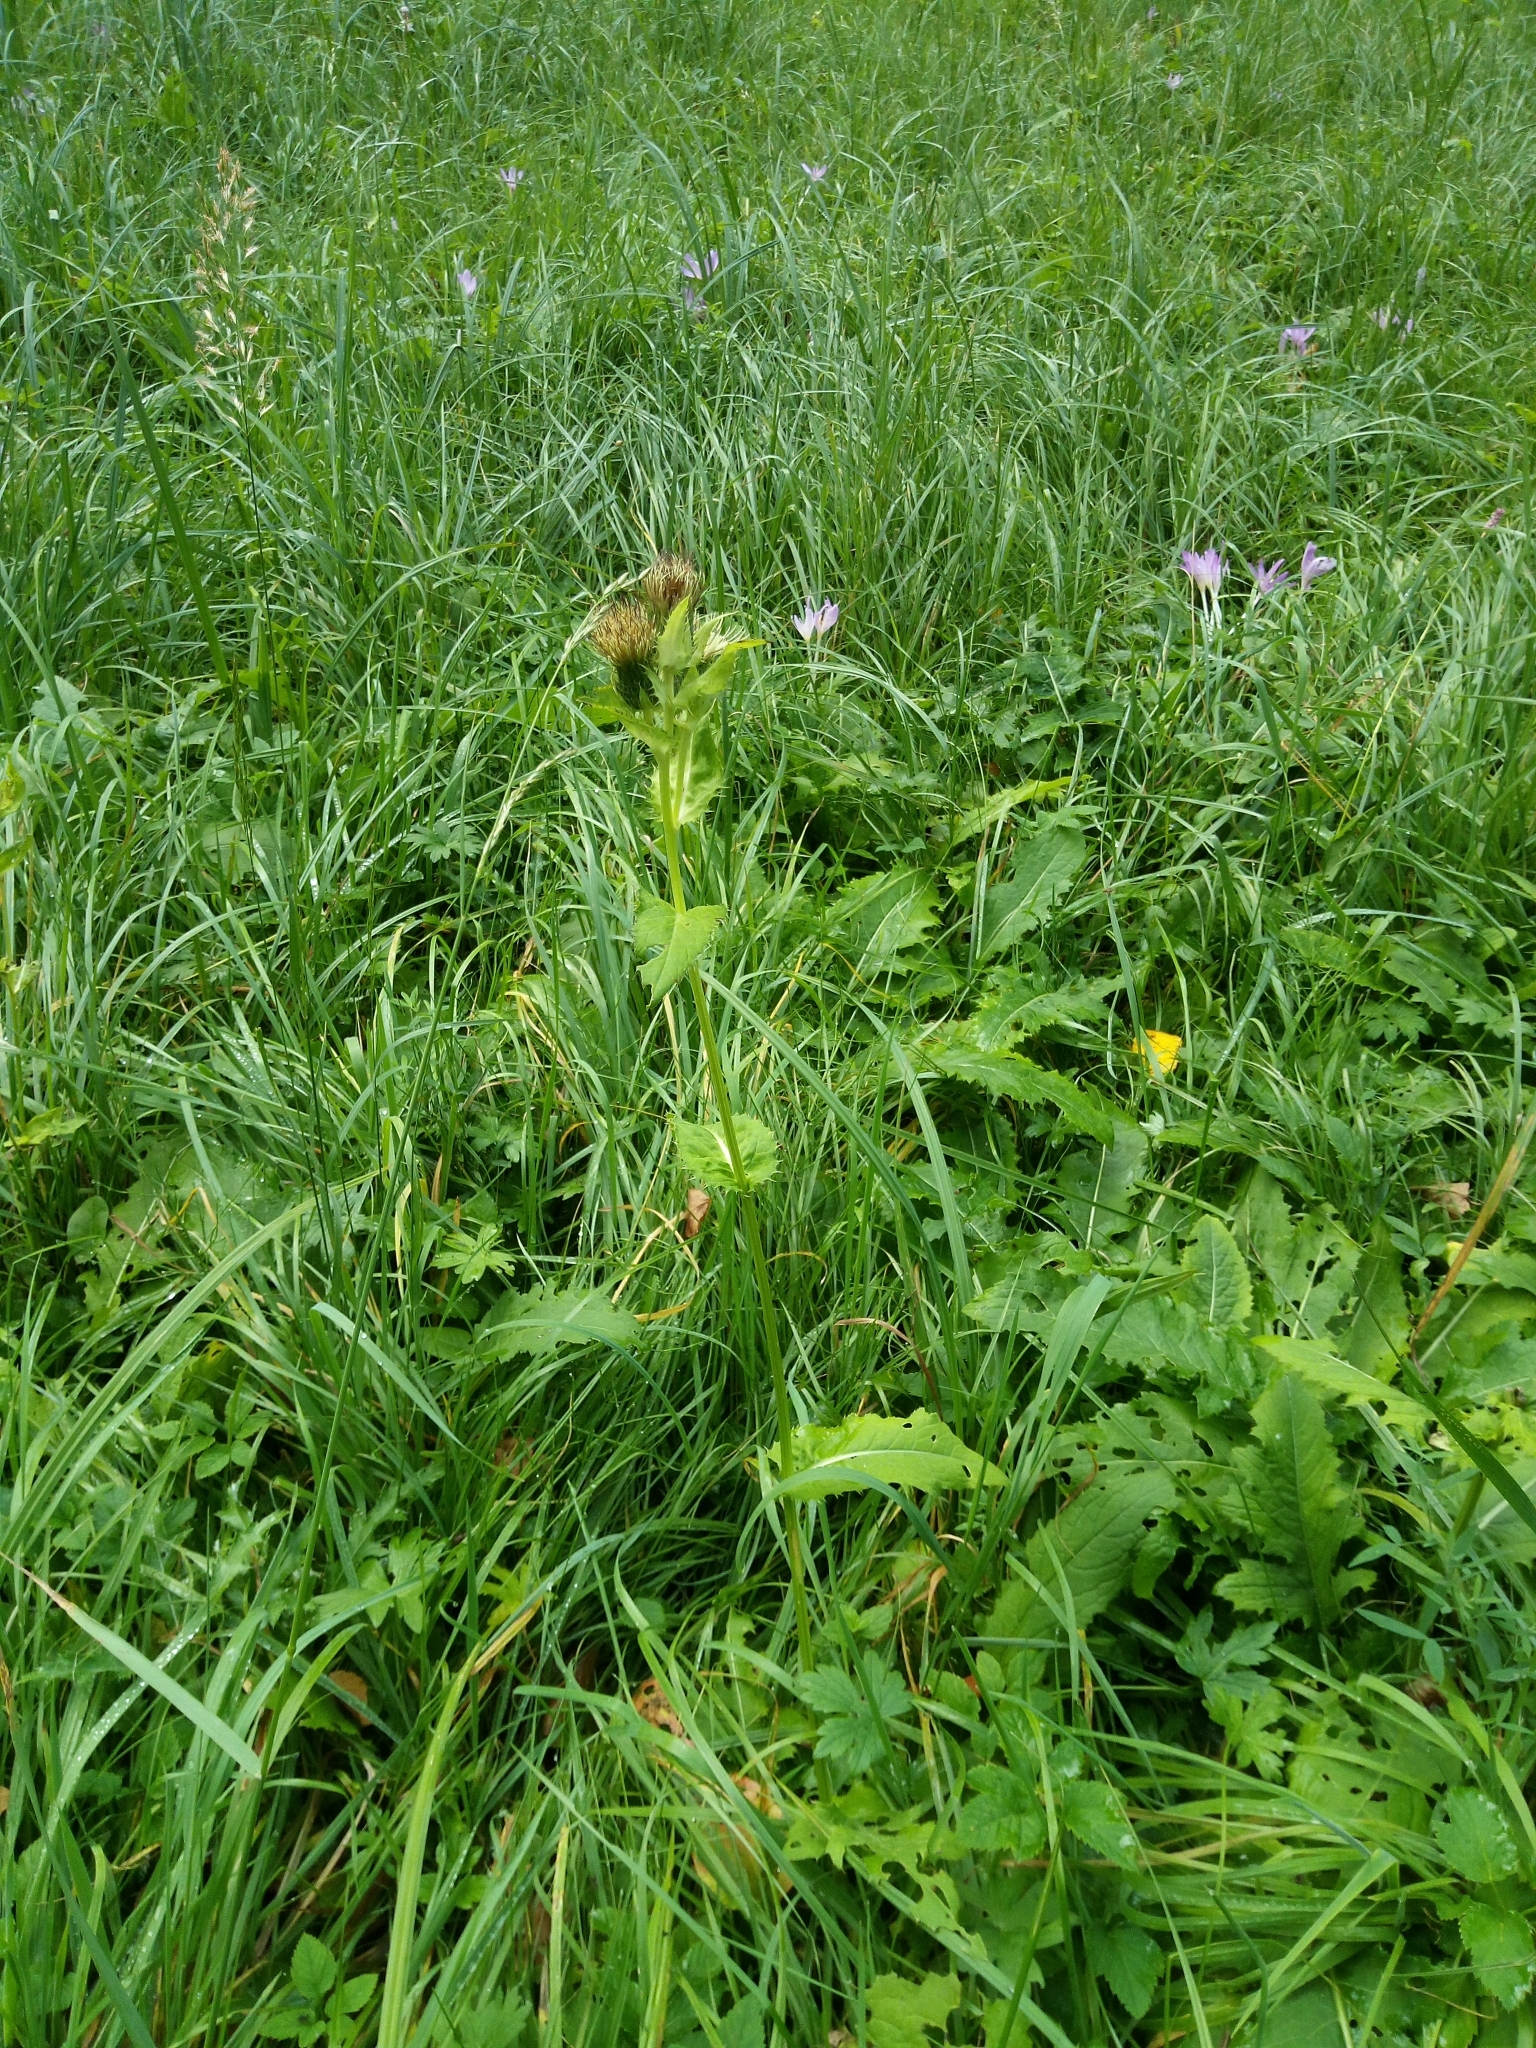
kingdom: Plantae
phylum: Tracheophyta
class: Magnoliopsida
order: Asterales
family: Asteraceae
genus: Cirsium
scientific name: Cirsium oleraceum
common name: Cabbage thistle
